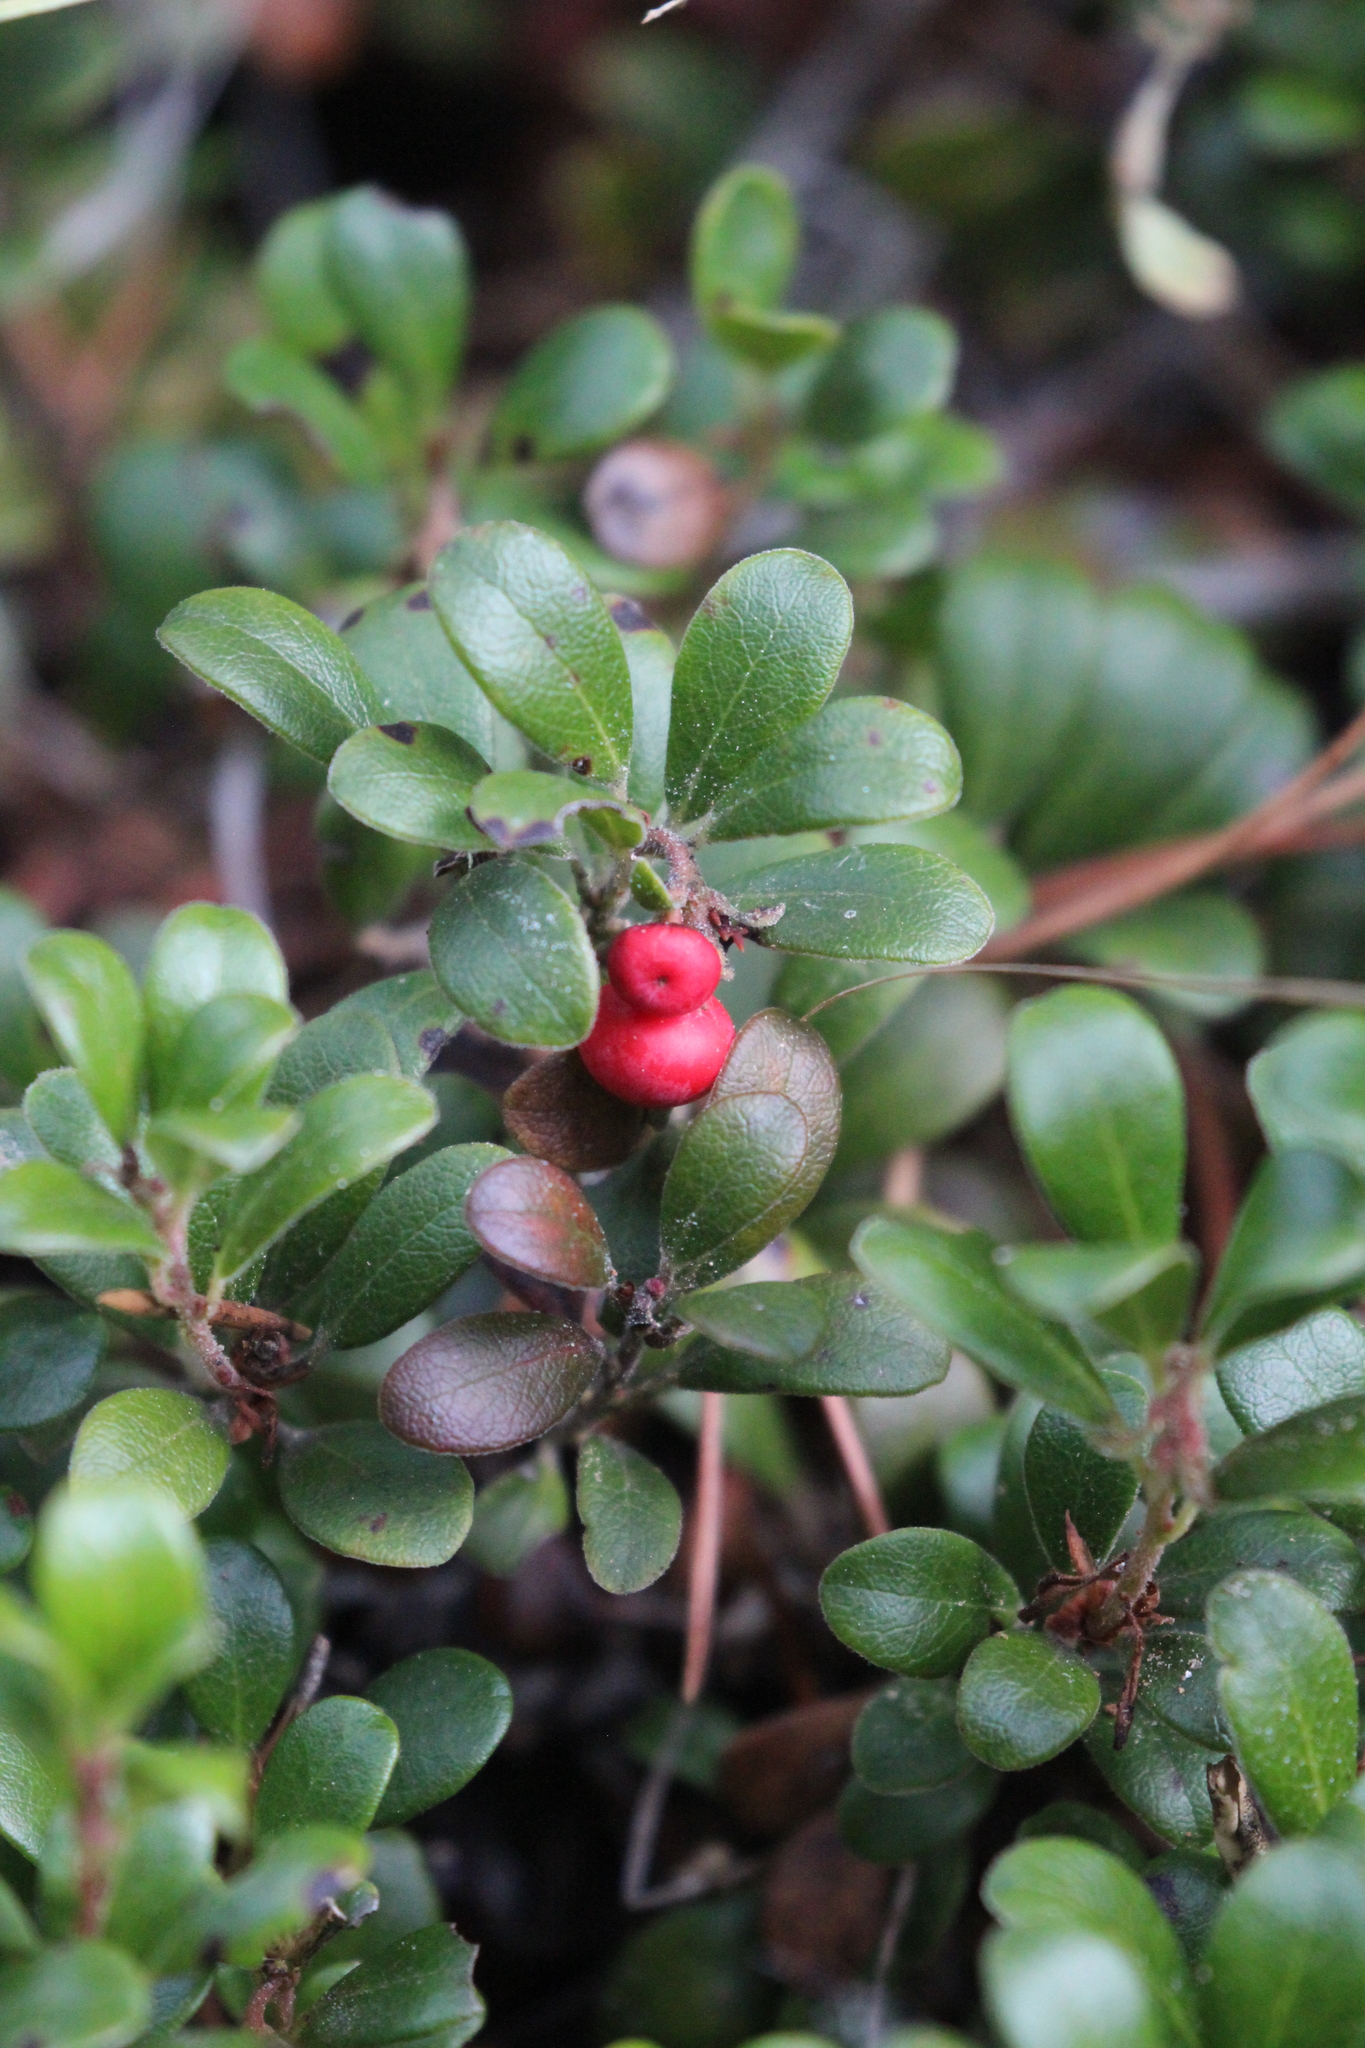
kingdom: Plantae
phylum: Tracheophyta
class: Magnoliopsida
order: Ericales
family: Ericaceae
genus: Arctostaphylos
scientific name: Arctostaphylos uva-ursi
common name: Bearberry
